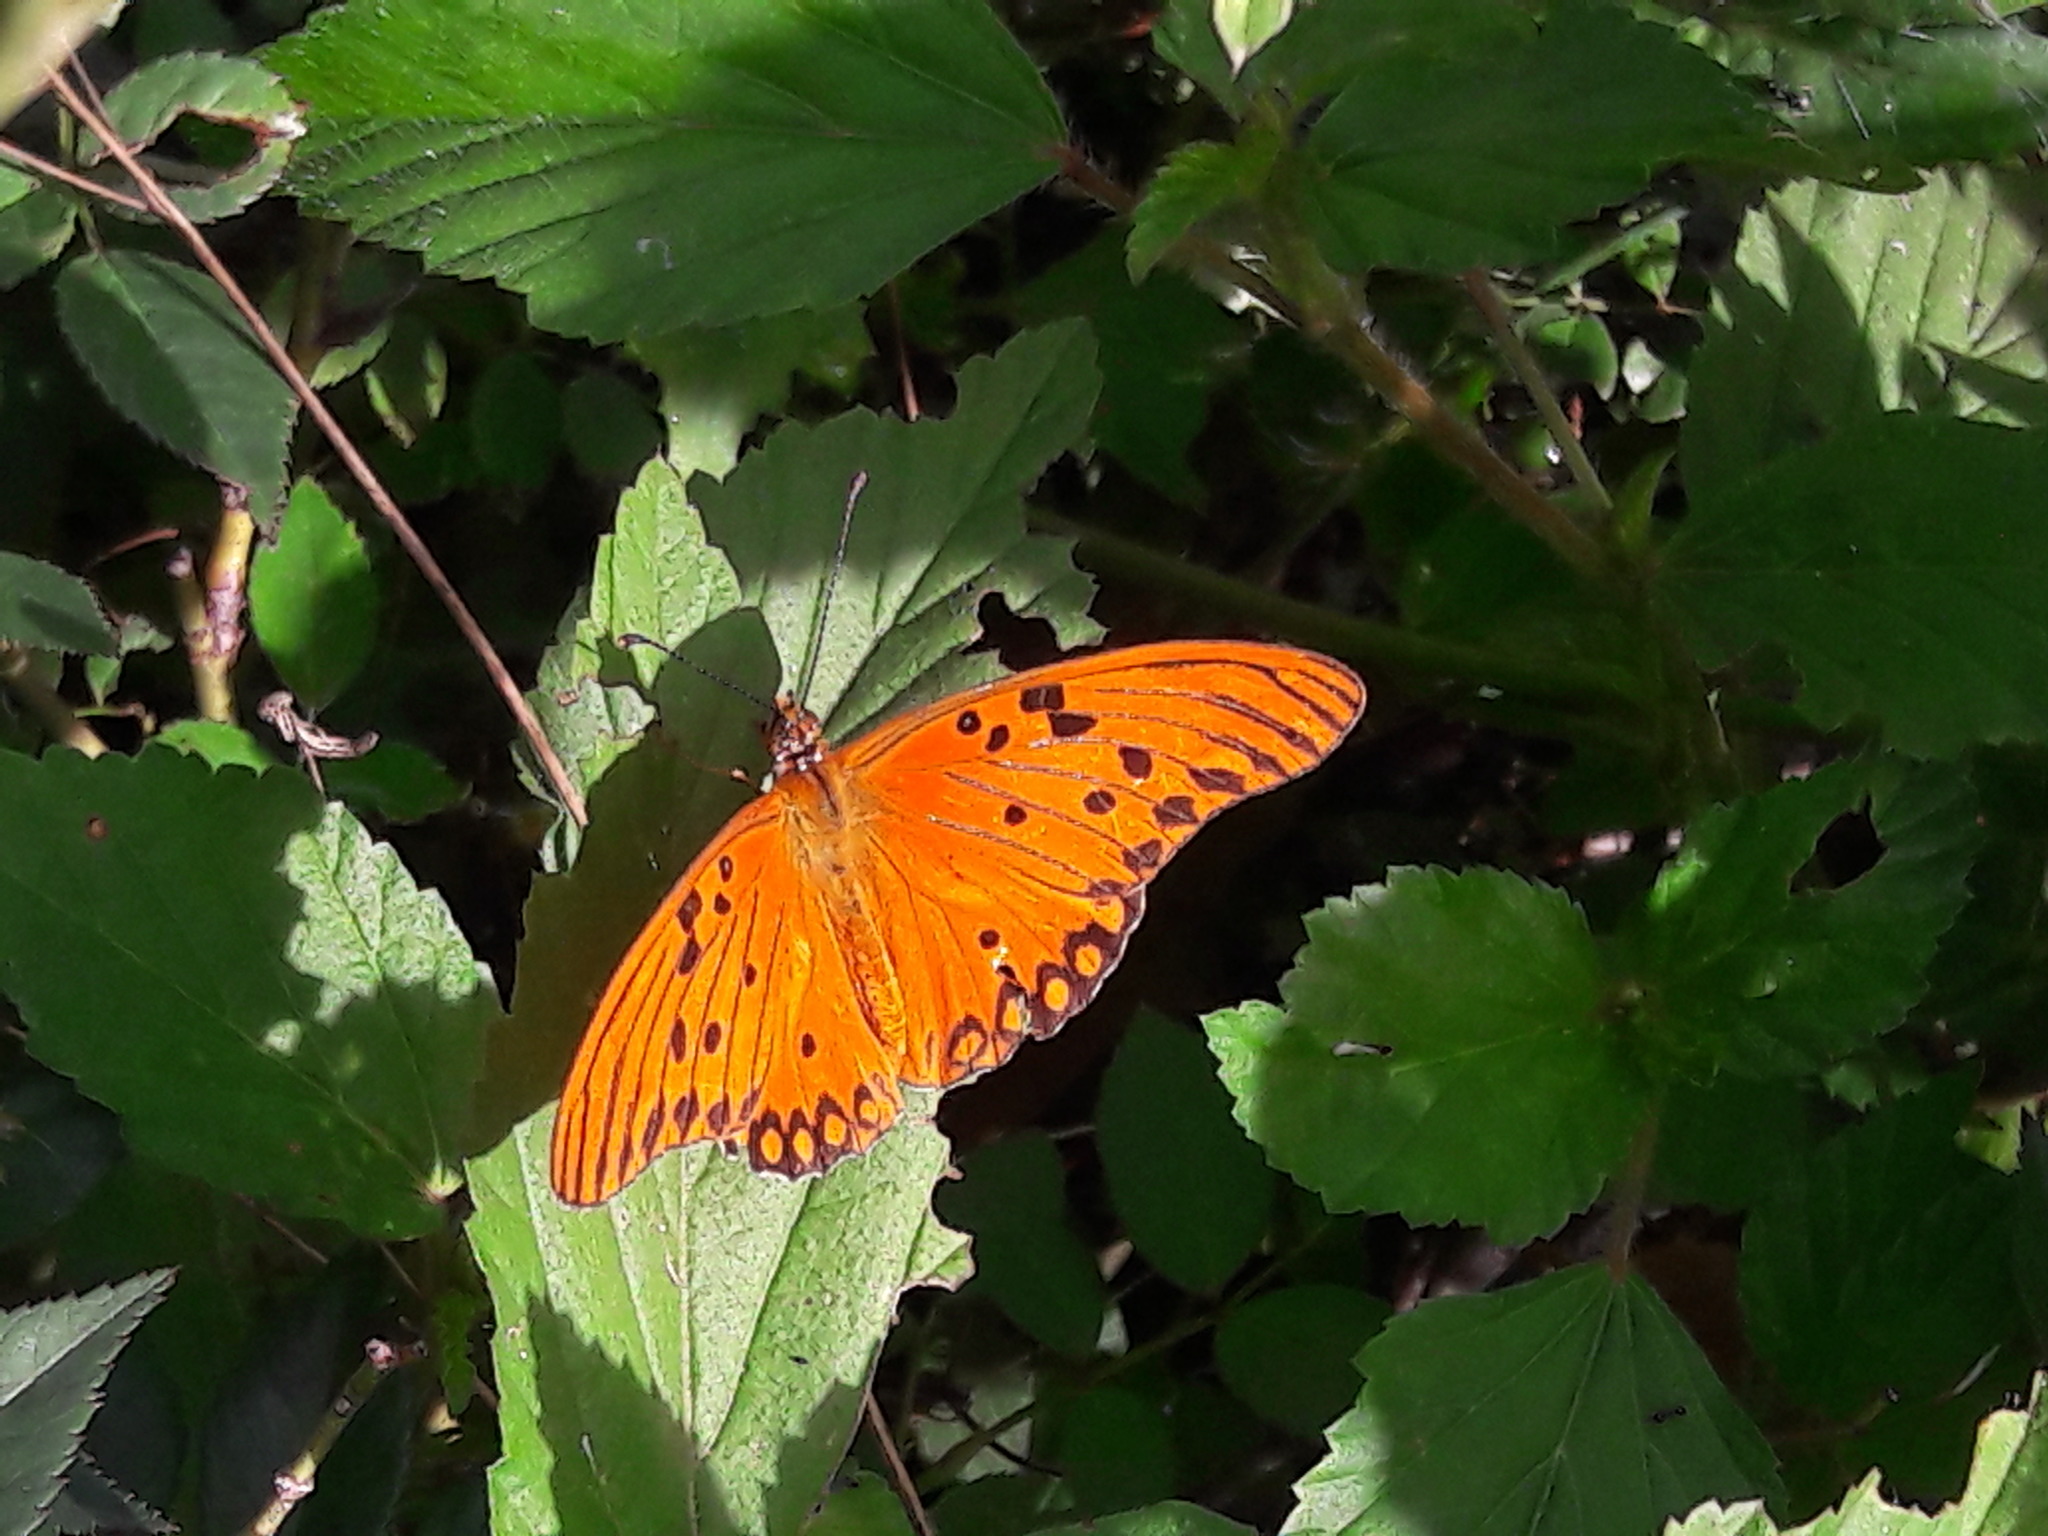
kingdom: Animalia
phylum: Arthropoda
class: Insecta
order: Lepidoptera
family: Nymphalidae
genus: Dione
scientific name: Dione vanillae
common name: Gulf fritillary
